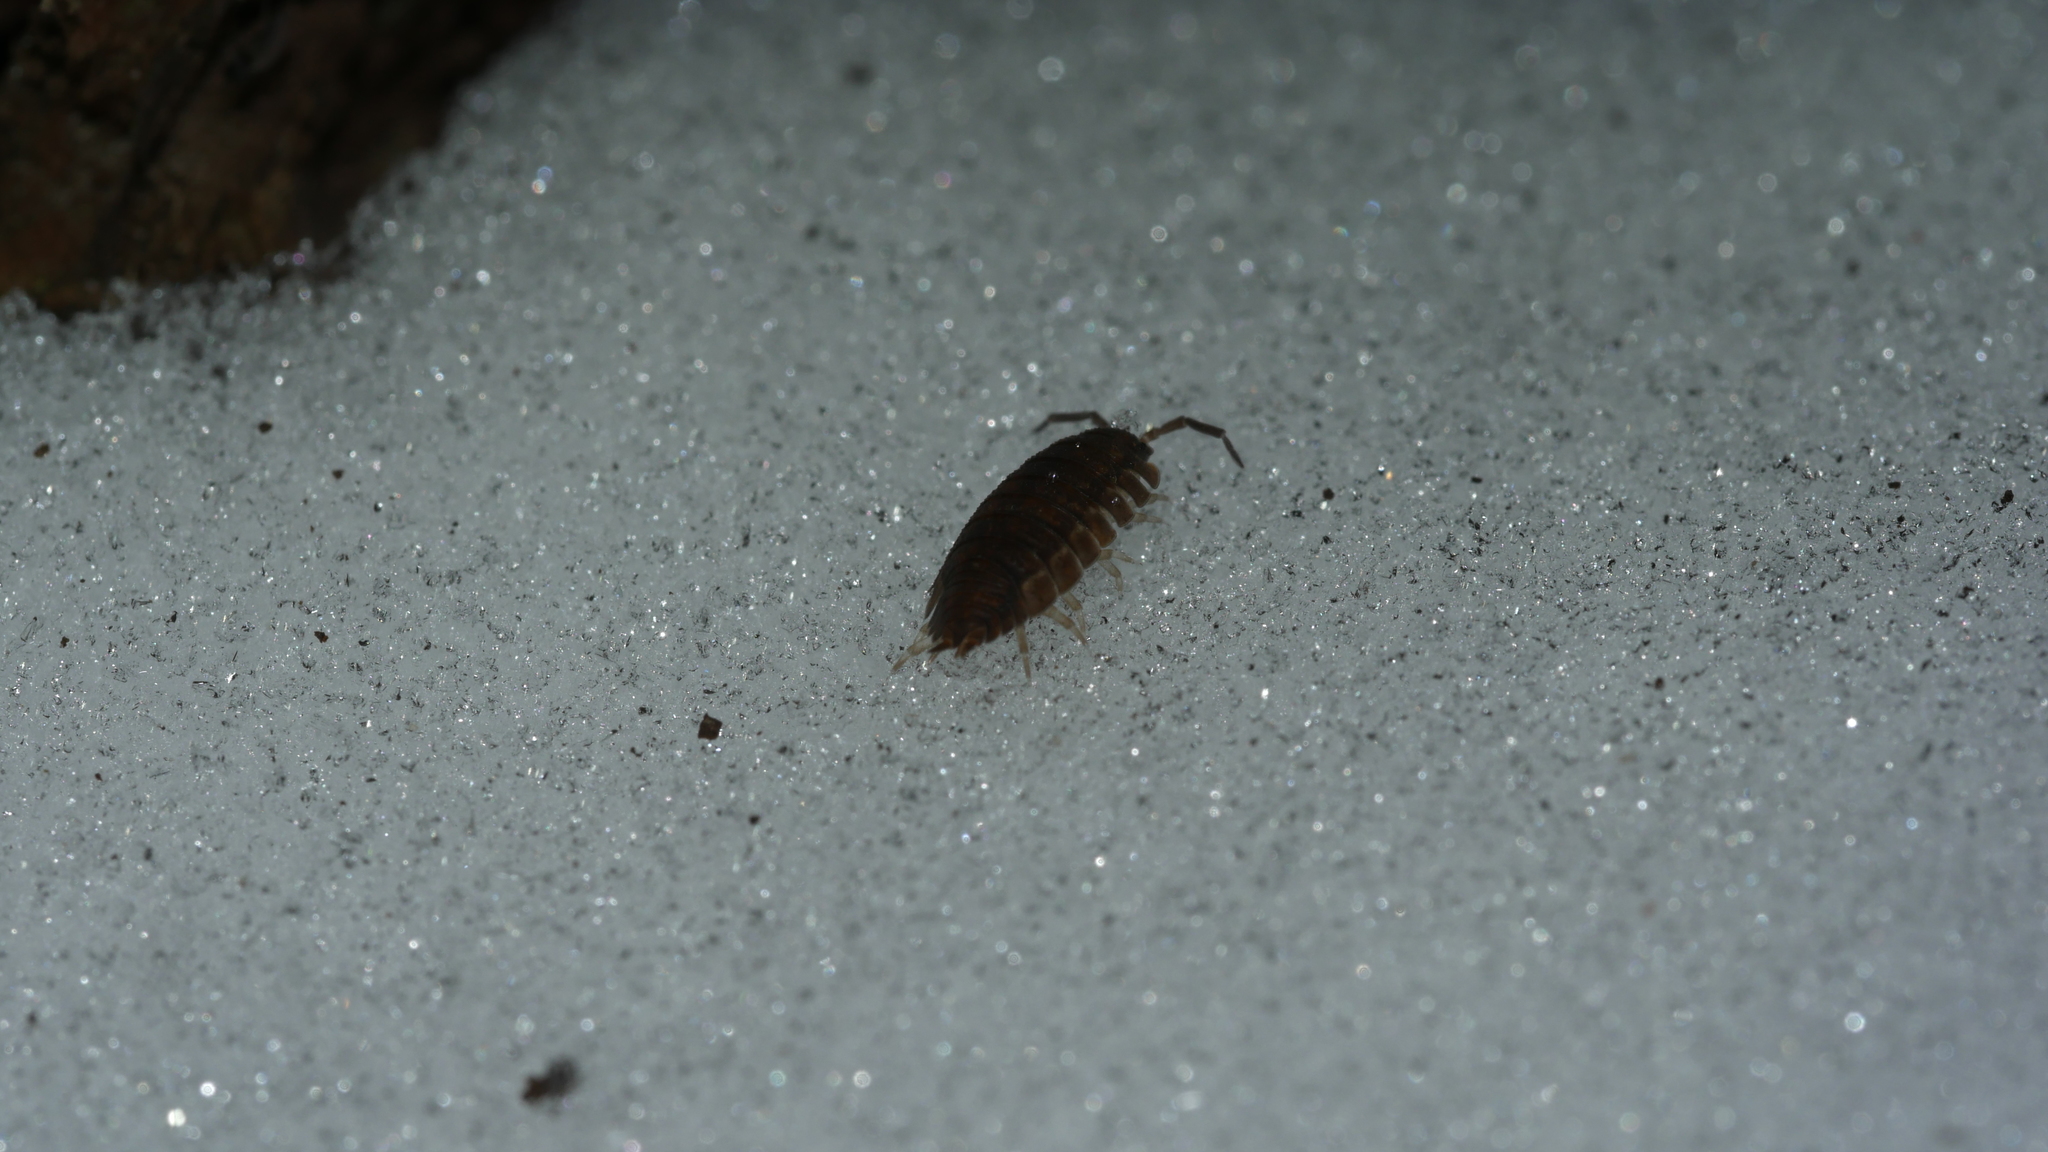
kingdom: Animalia
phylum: Arthropoda
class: Malacostraca
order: Isopoda
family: Porcellionidae
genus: Porcellio
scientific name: Porcellio scaber
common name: Common rough woodlouse
